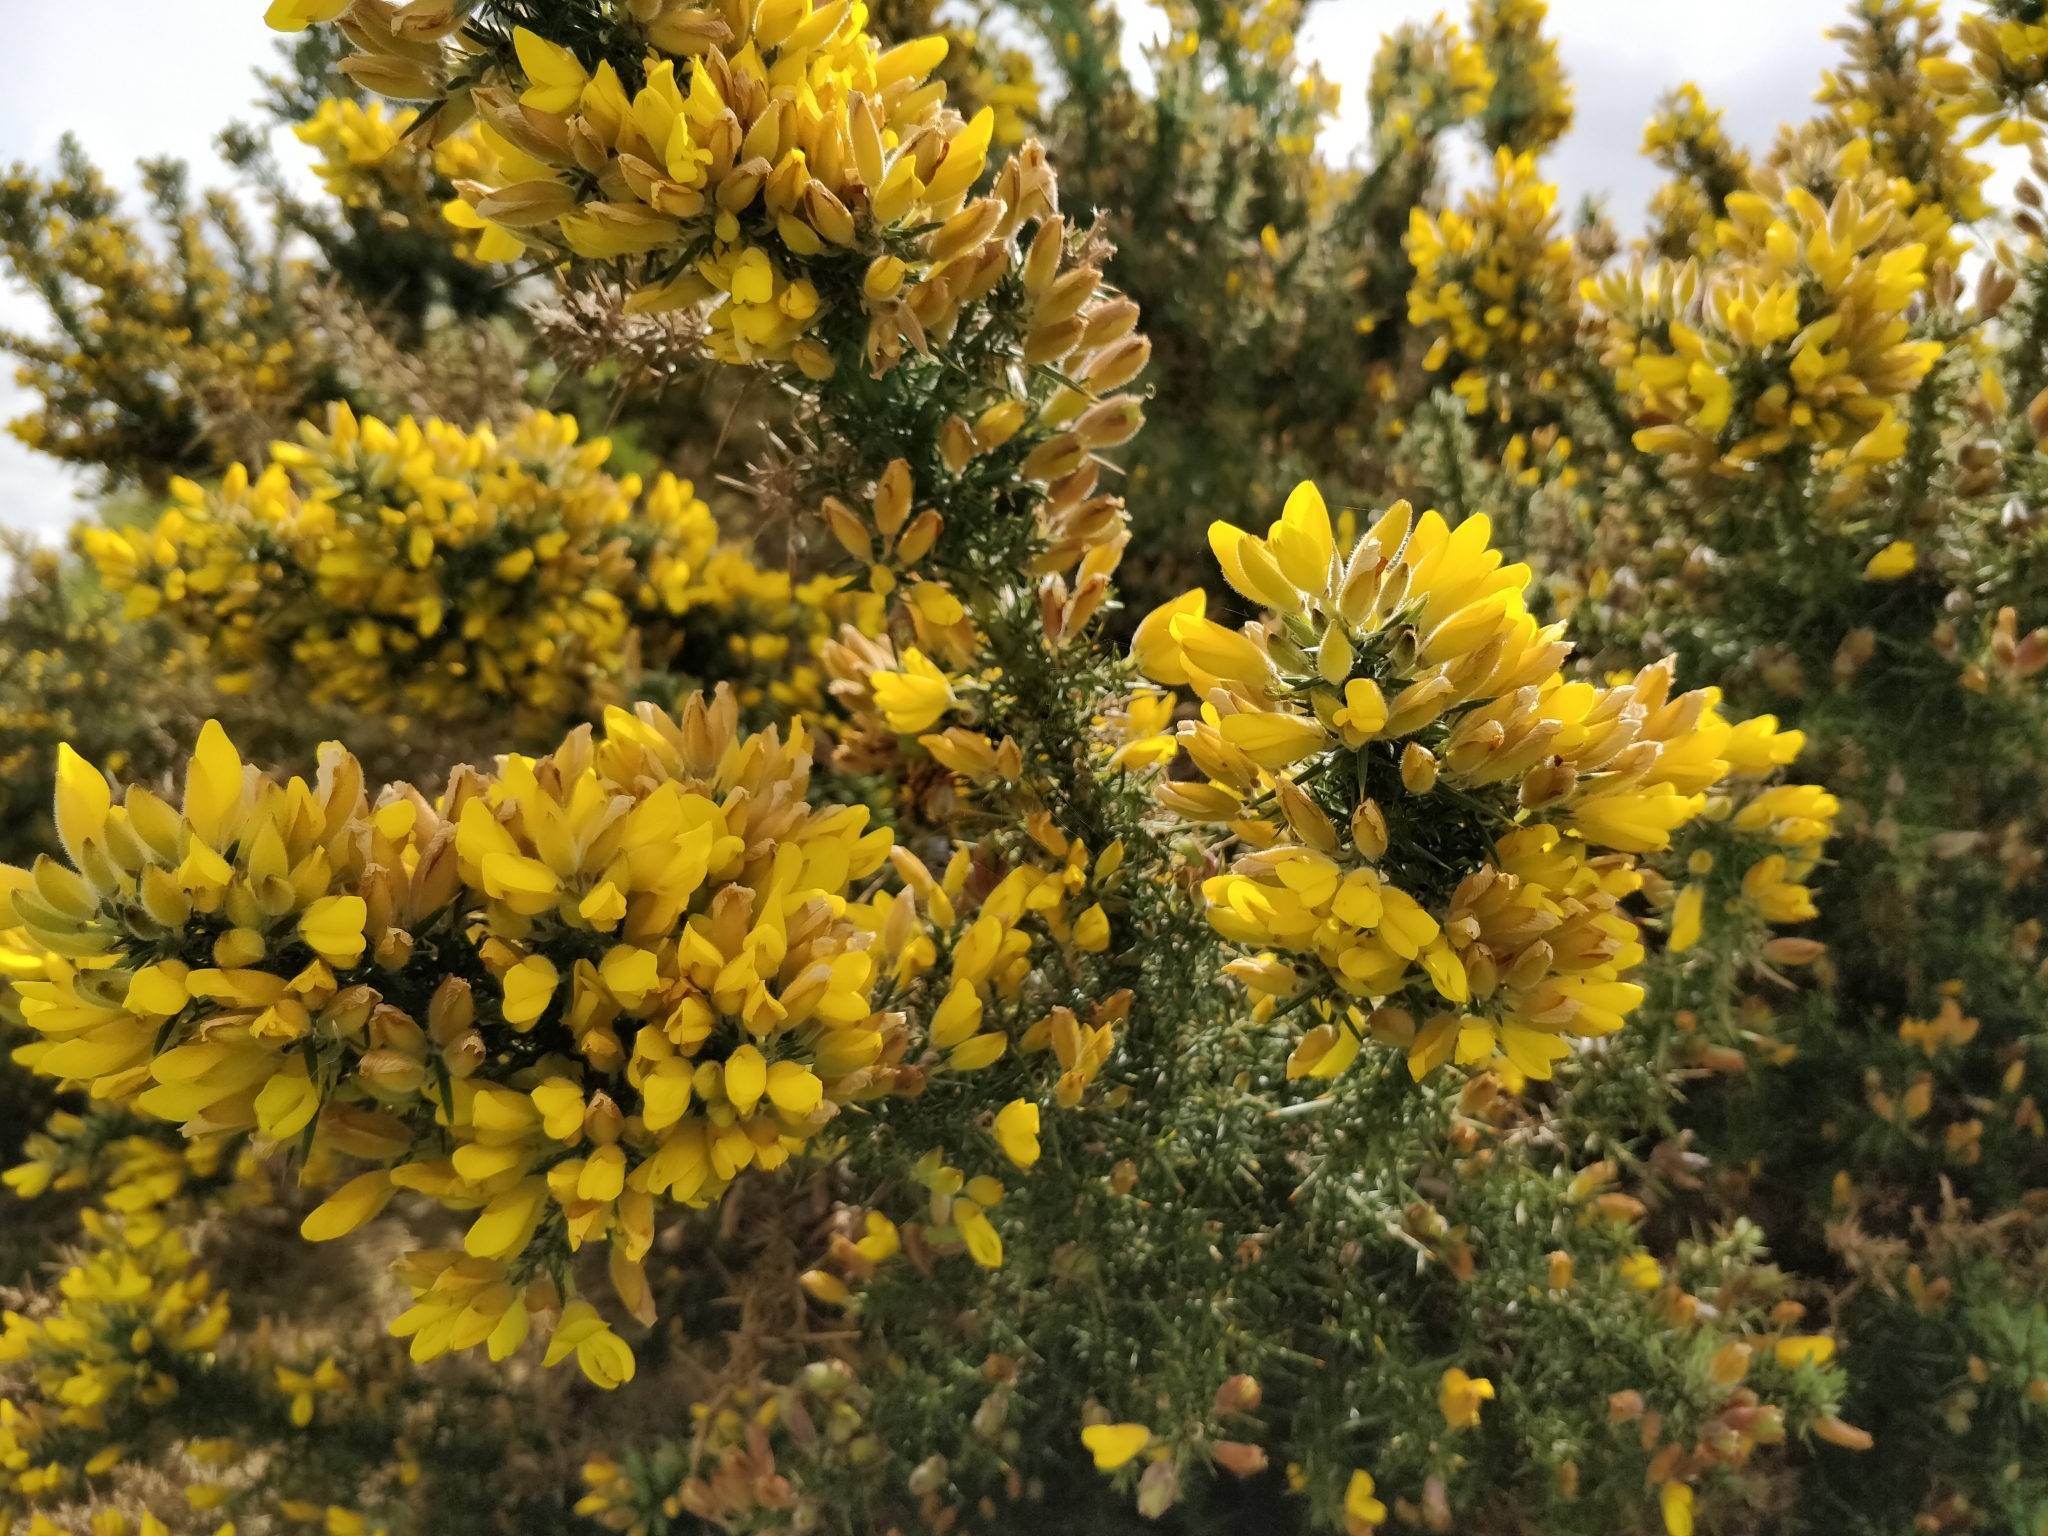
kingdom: Plantae
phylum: Tracheophyta
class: Magnoliopsida
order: Fabales
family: Fabaceae
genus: Ulex
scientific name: Ulex europaeus
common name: Common gorse
